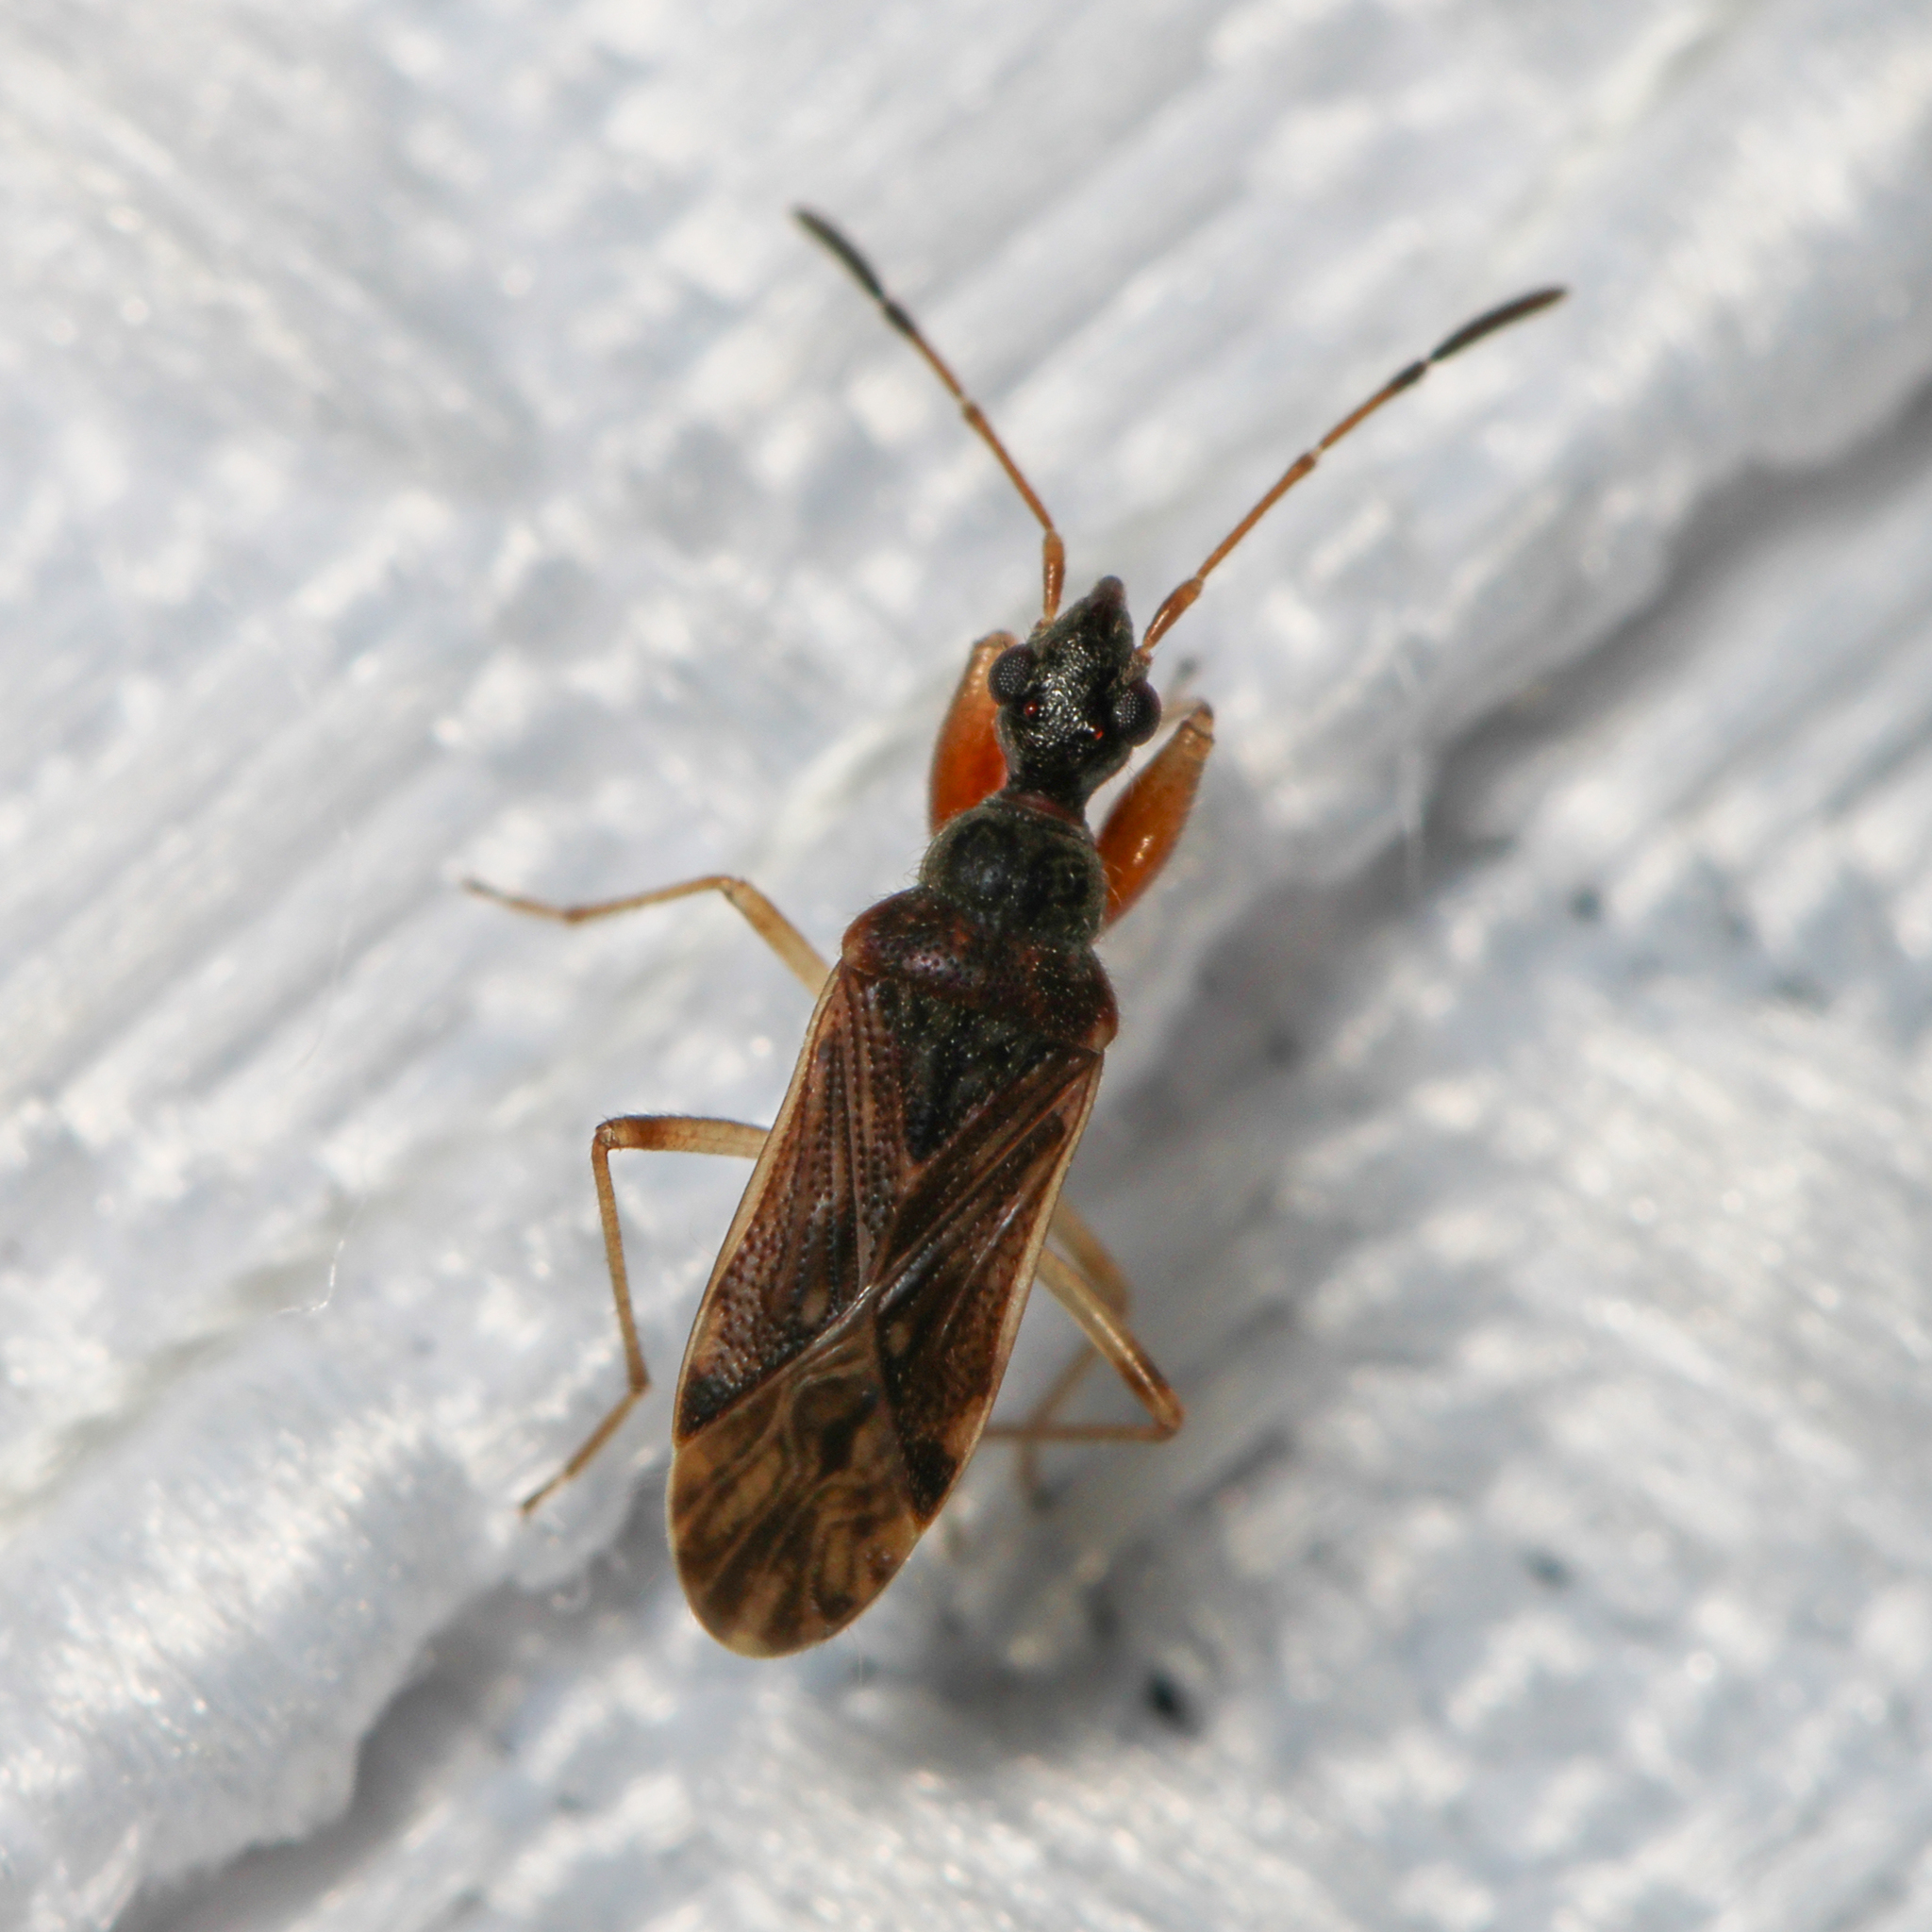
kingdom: Animalia
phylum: Arthropoda
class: Insecta
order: Hemiptera
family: Rhyparochromidae
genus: Heraeus
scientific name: Heraeus plebejus
